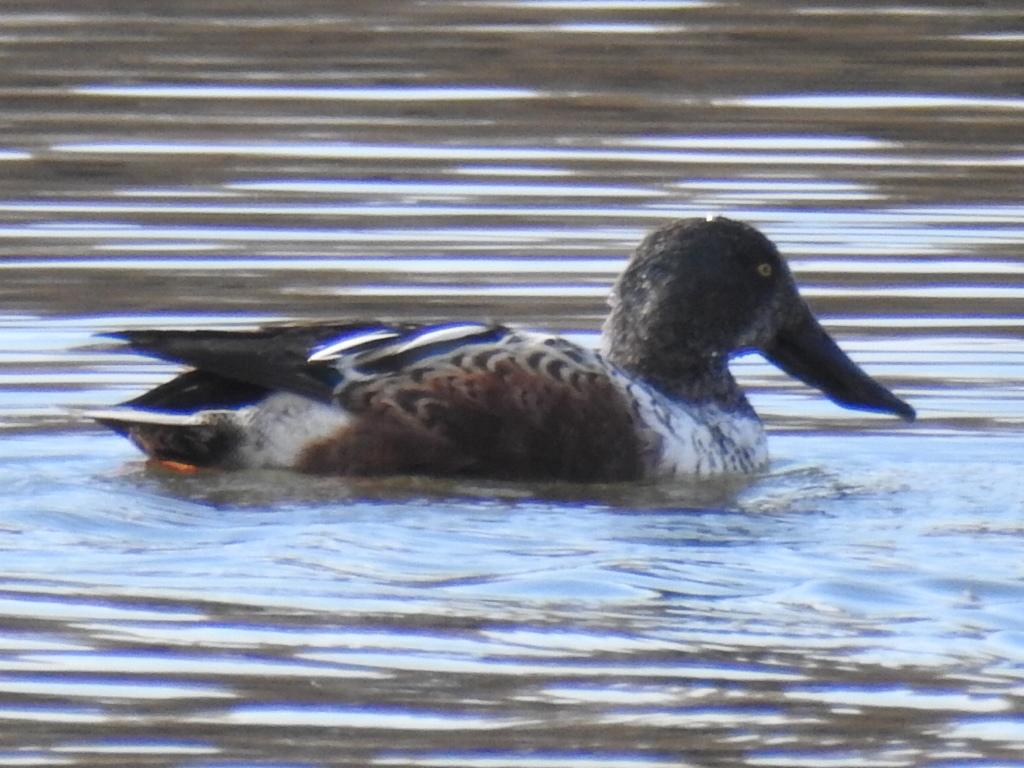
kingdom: Animalia
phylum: Chordata
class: Aves
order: Anseriformes
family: Anatidae
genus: Spatula
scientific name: Spatula clypeata
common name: Northern shoveler
